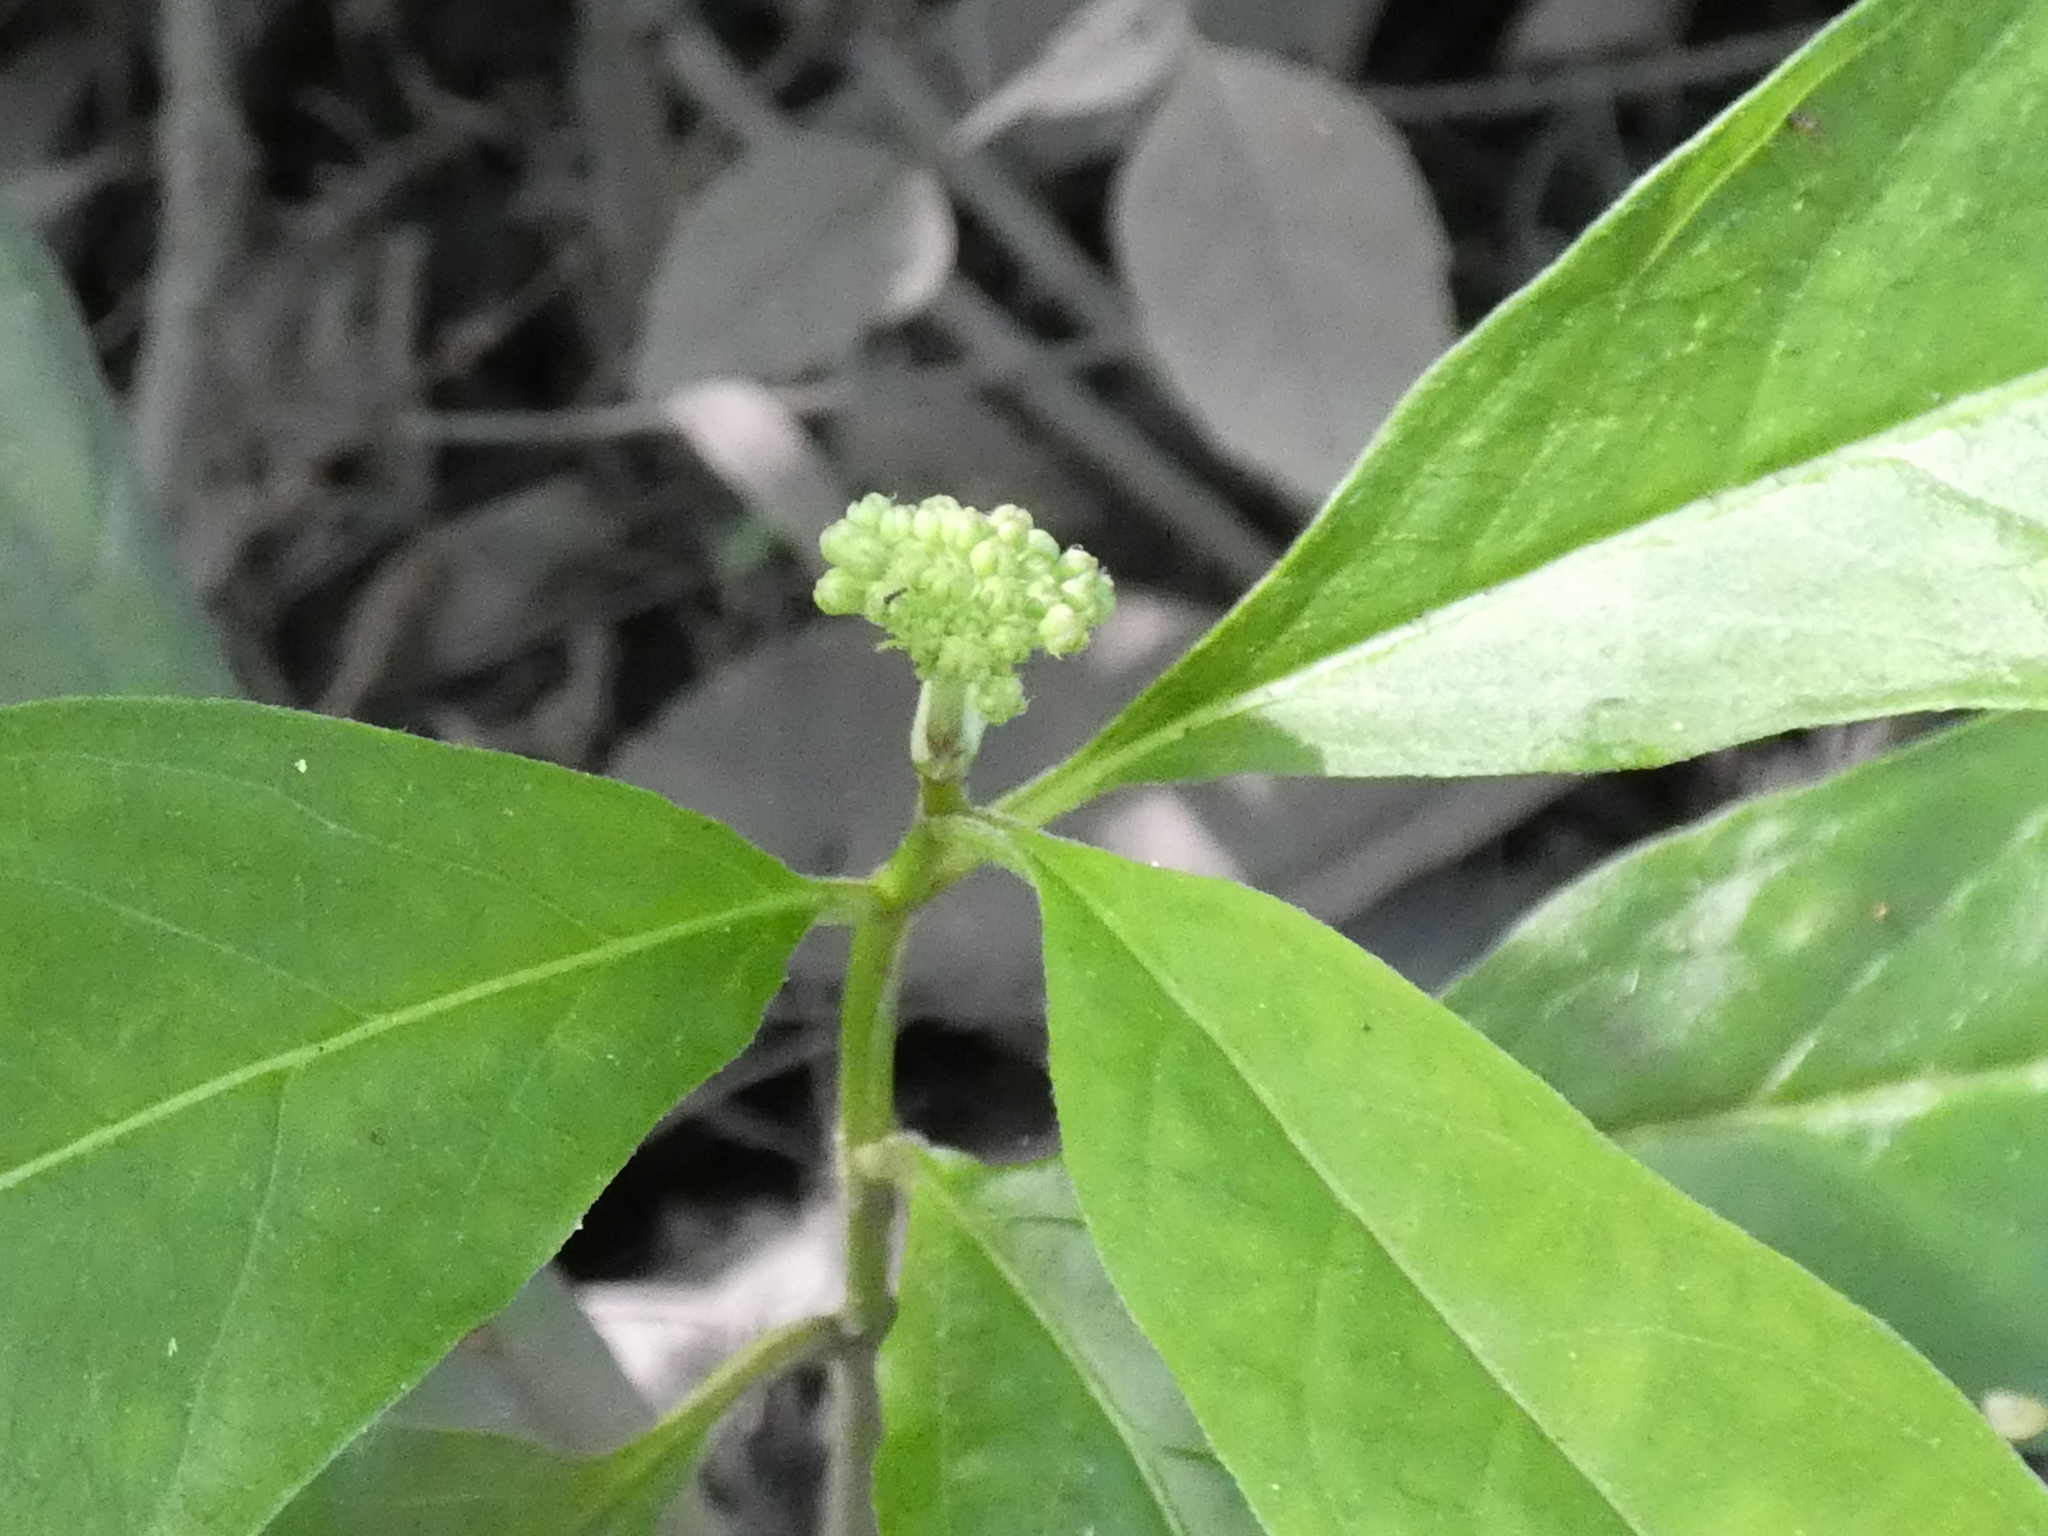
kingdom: Plantae
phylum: Tracheophyta
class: Magnoliopsida
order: Gentianales
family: Apocynaceae
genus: Asclepias
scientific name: Asclepias perennis
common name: Smooth-seed milkweed
